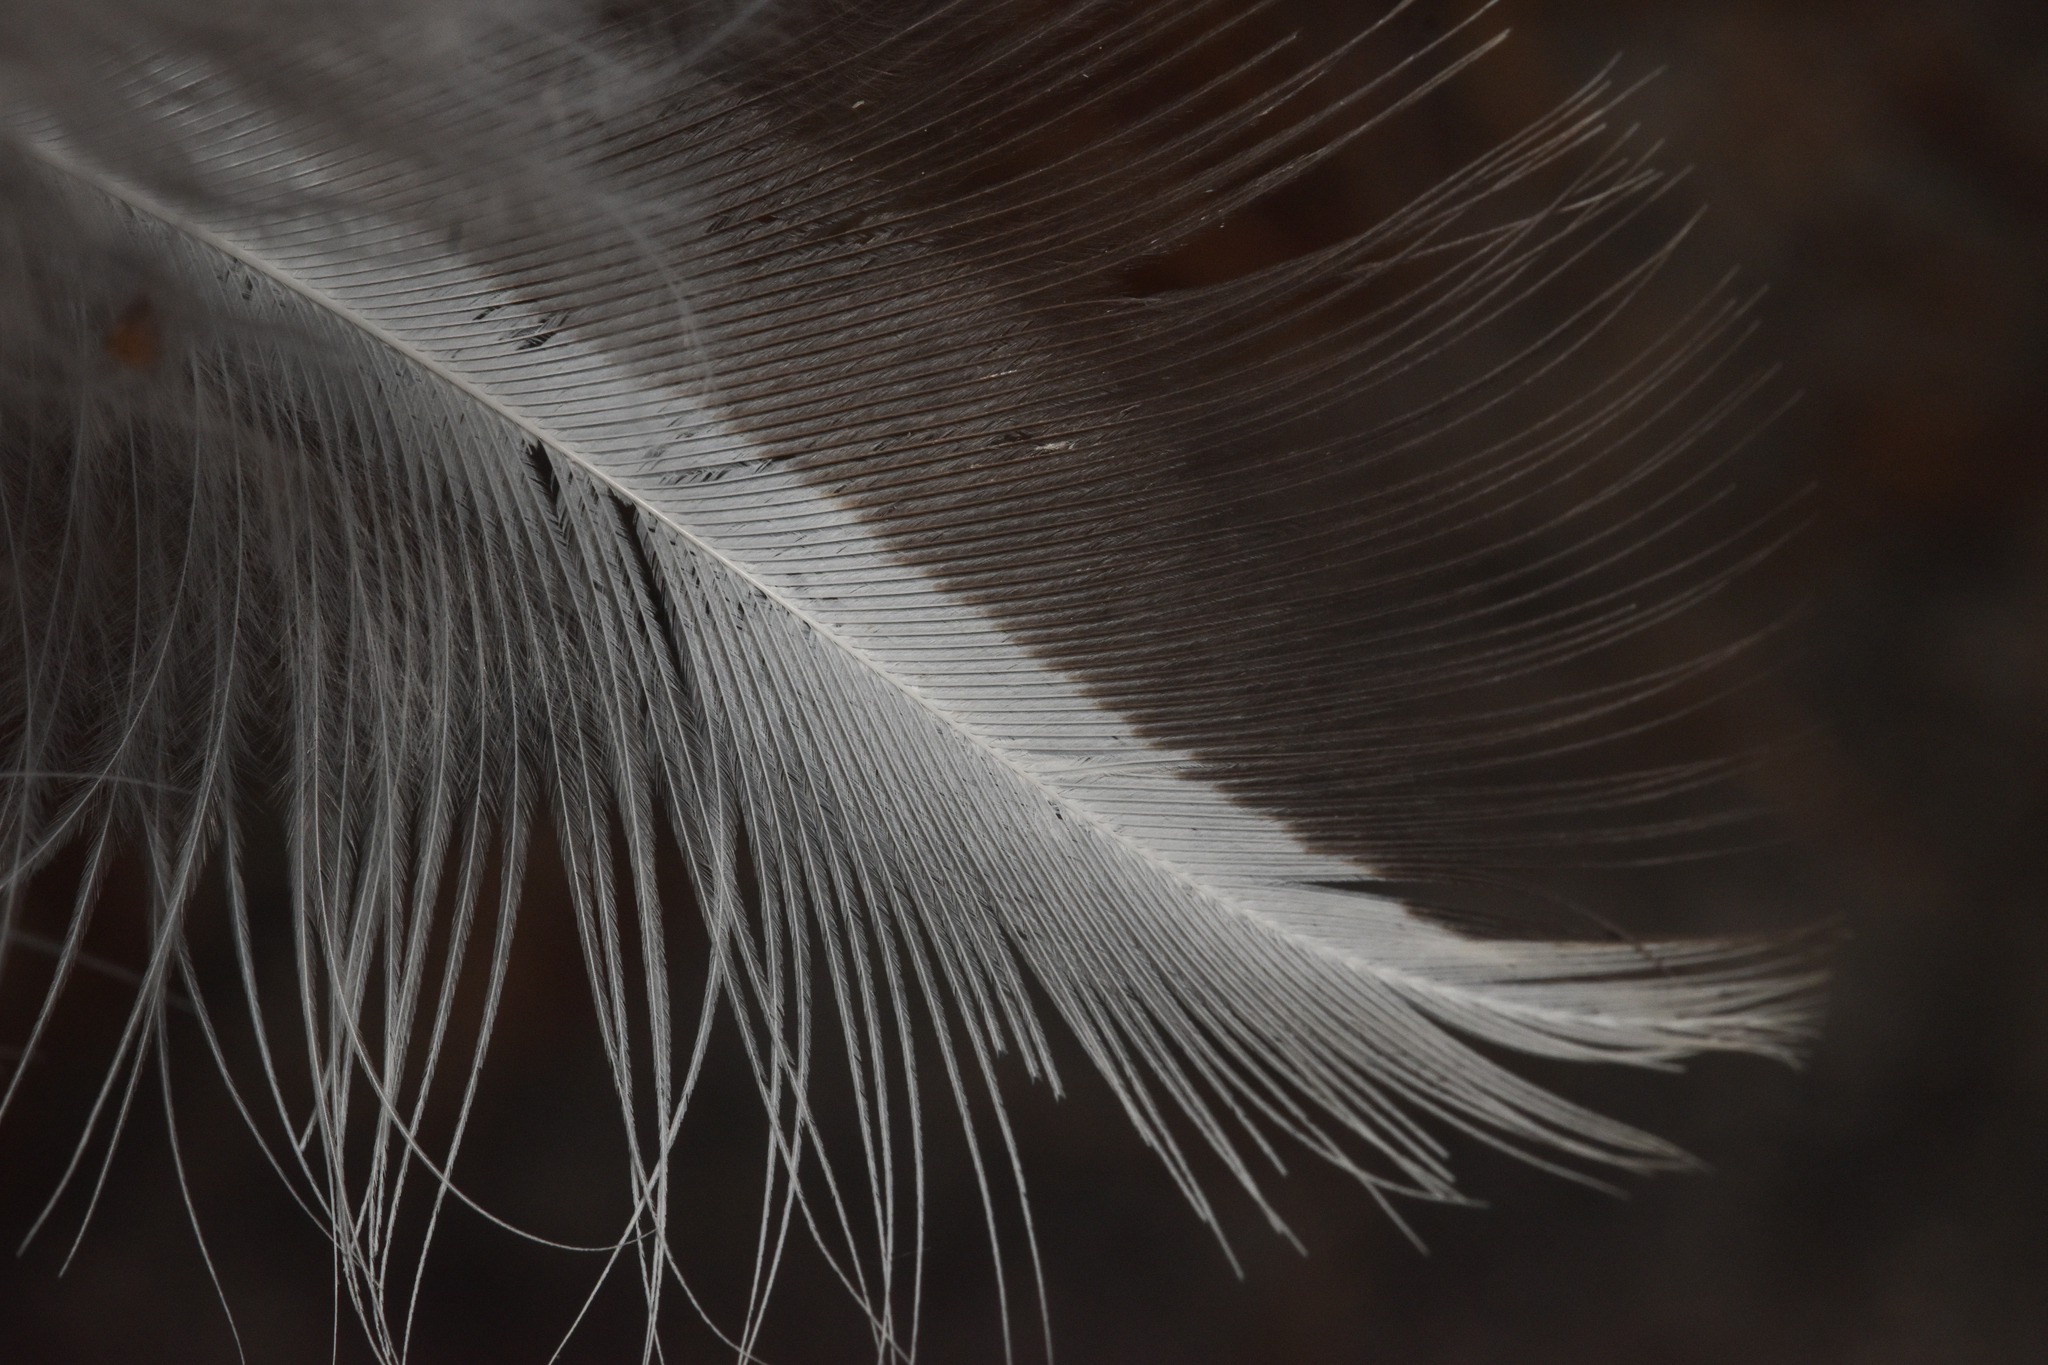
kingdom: Animalia
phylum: Chordata
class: Aves
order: Pelecaniformes
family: Ardeidae
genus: Ardea
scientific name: Ardea herodias
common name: Great blue heron
